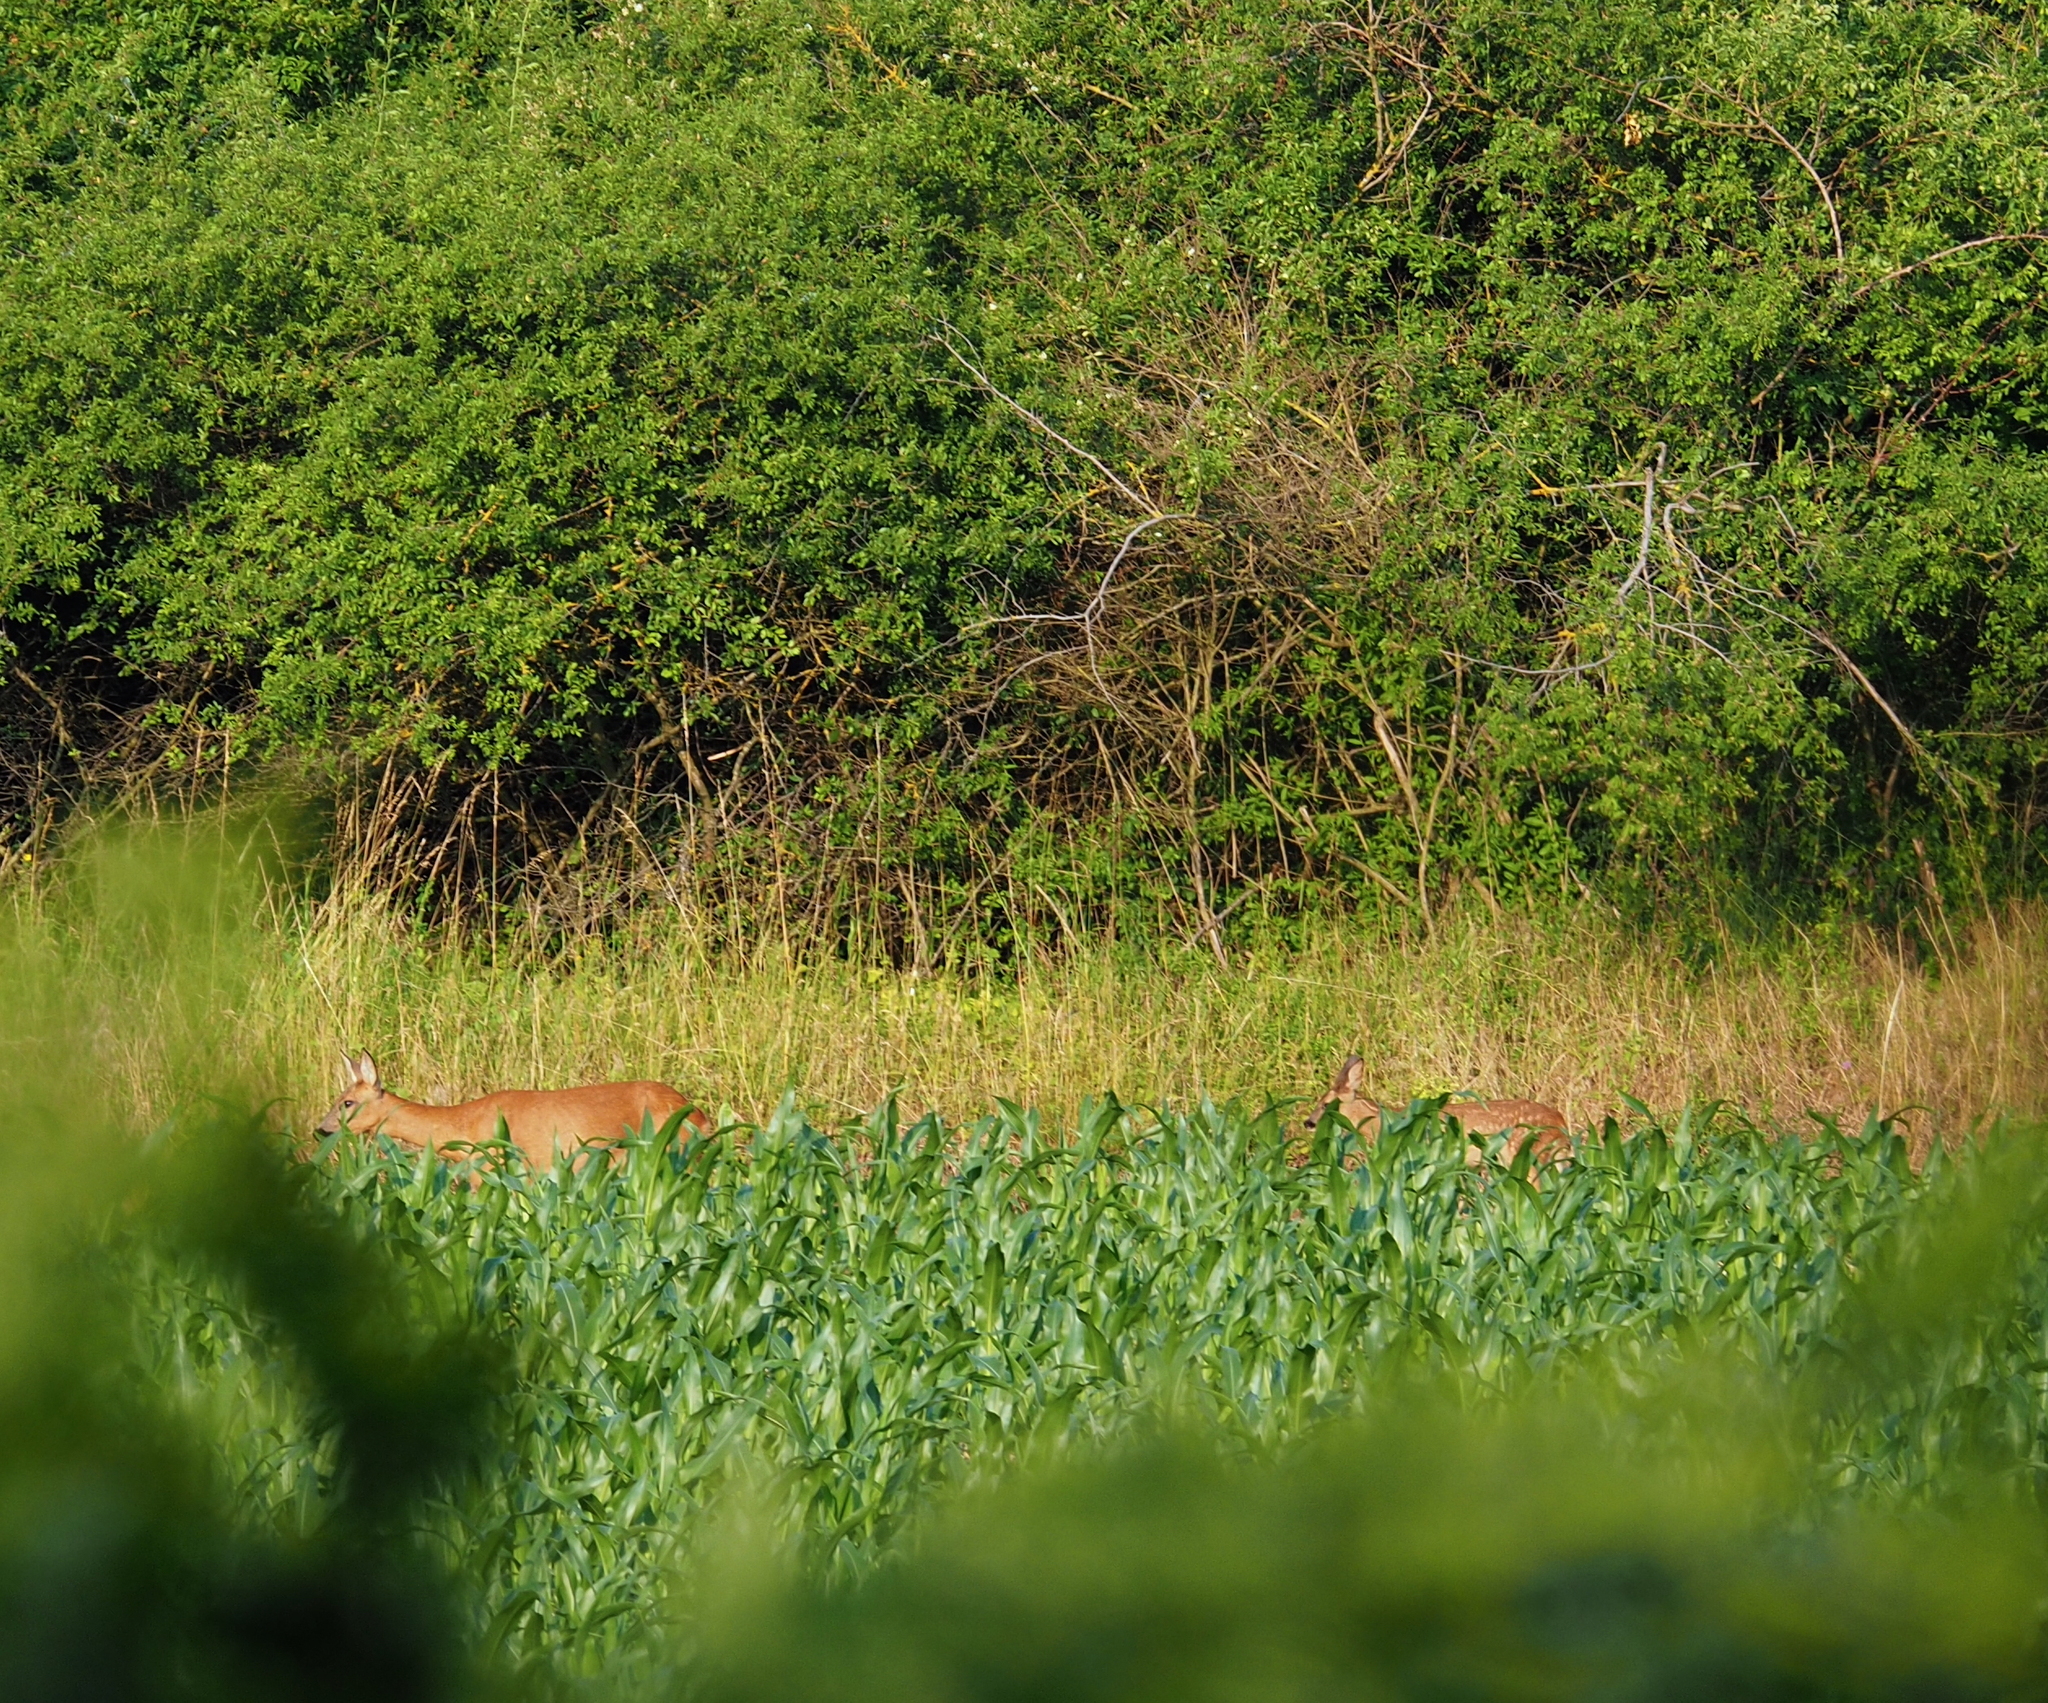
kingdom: Animalia
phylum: Chordata
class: Mammalia
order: Artiodactyla
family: Cervidae
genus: Capreolus
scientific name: Capreolus capreolus
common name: Western roe deer
